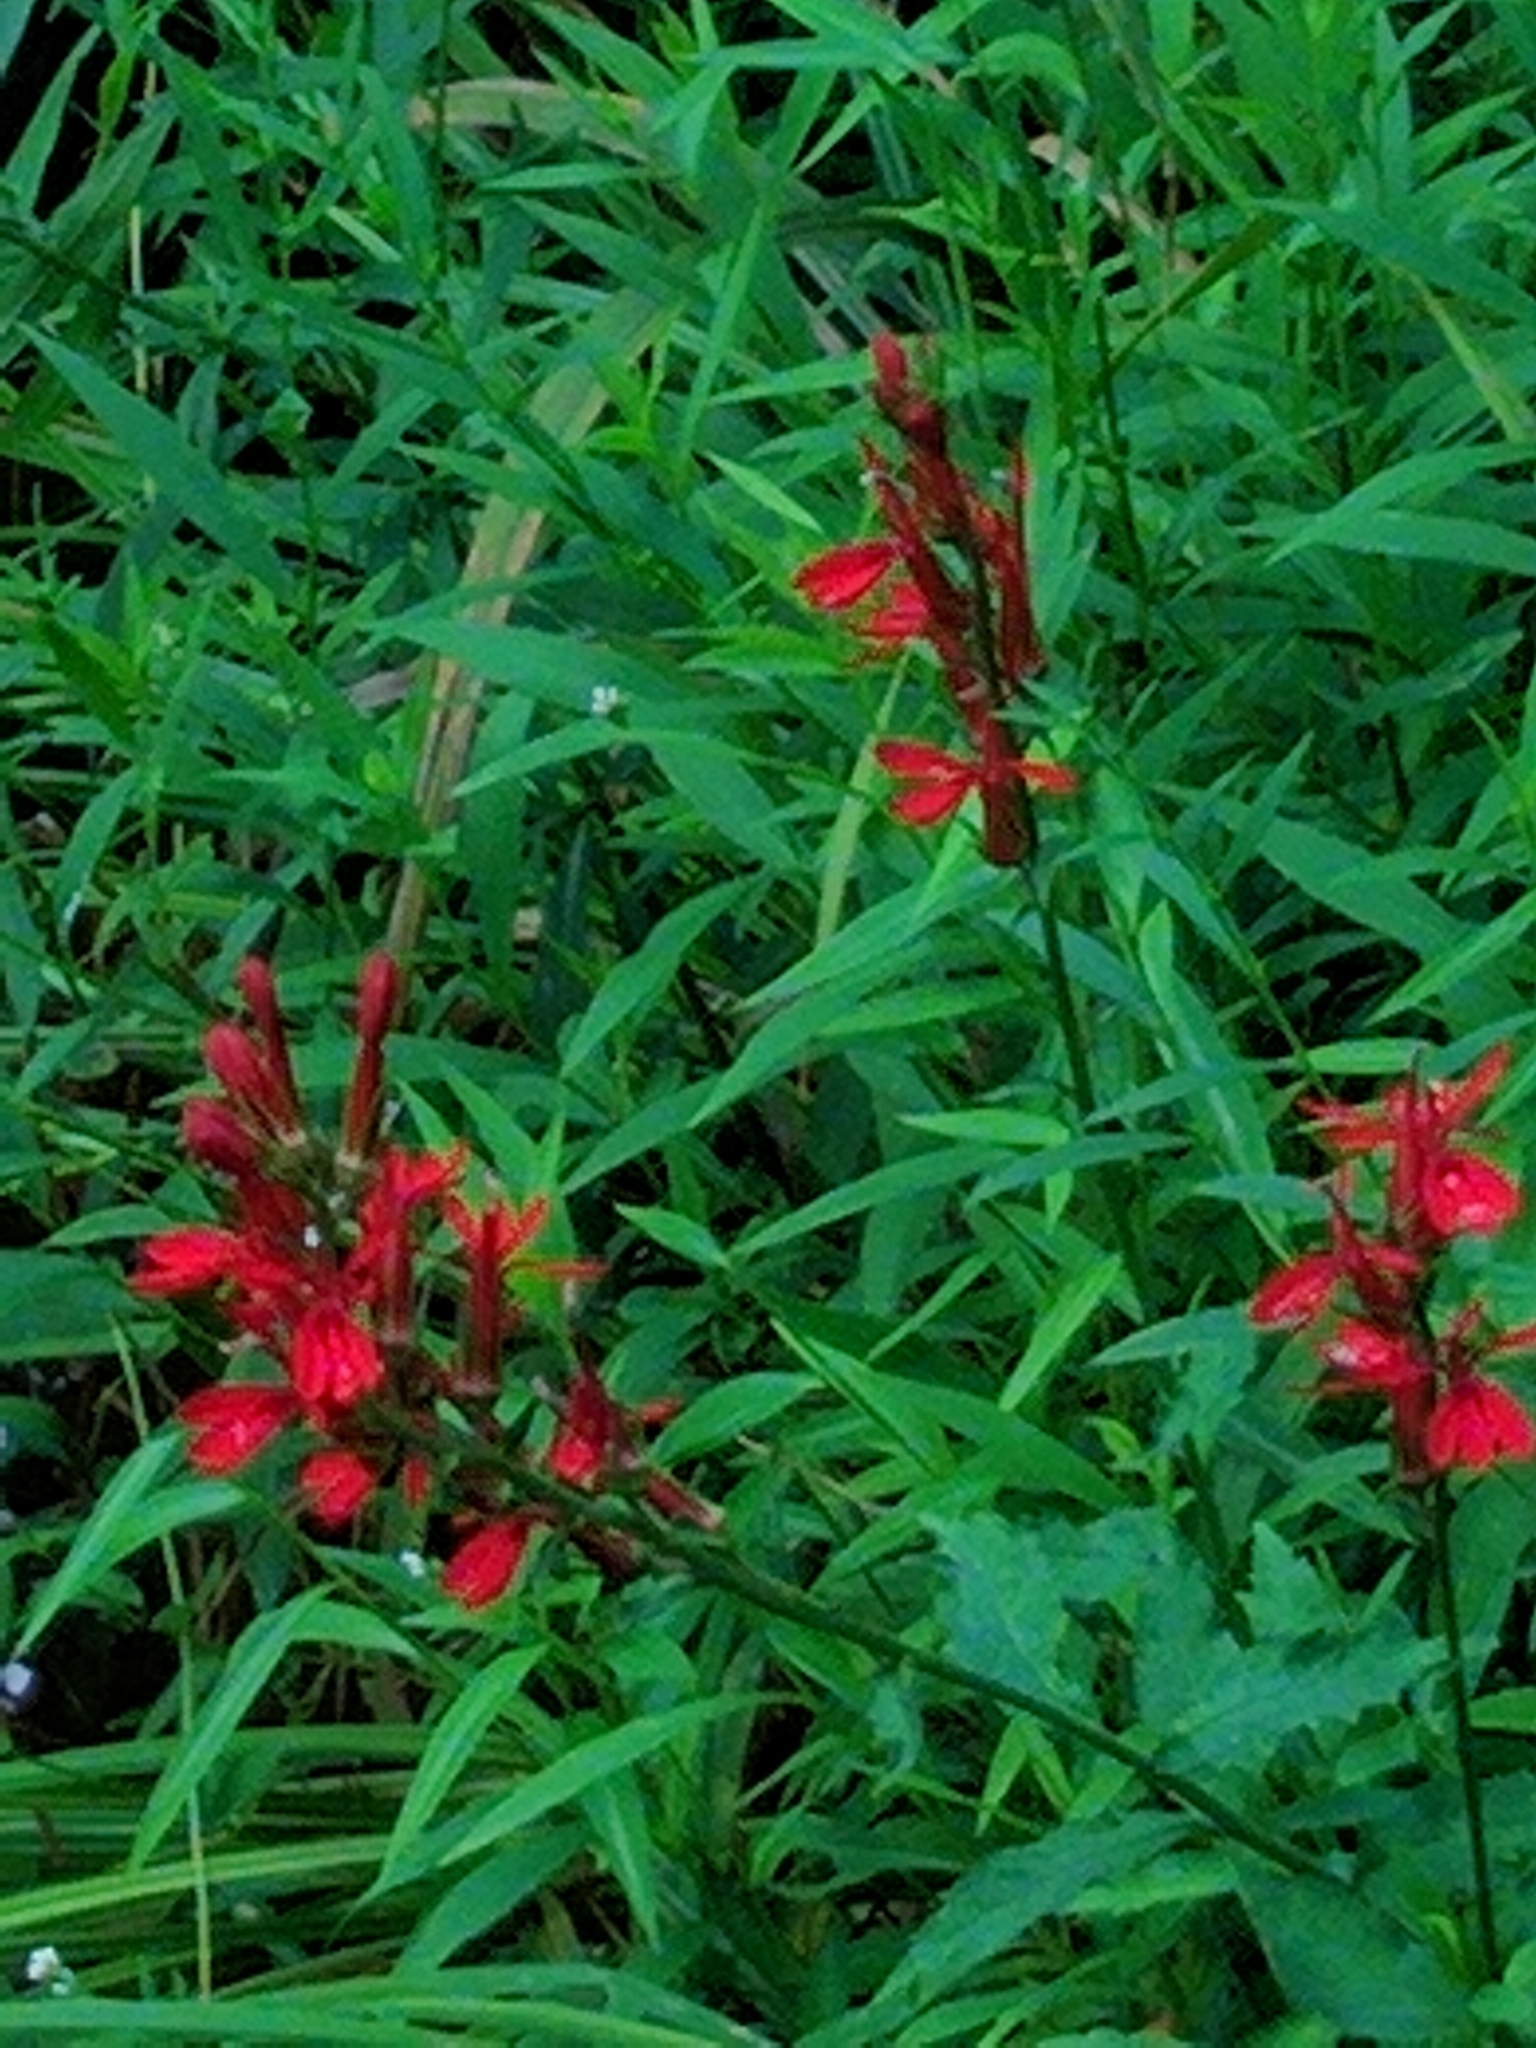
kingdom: Plantae
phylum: Tracheophyta
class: Magnoliopsida
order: Asterales
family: Campanulaceae
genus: Lobelia
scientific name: Lobelia cardinalis
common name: Cardinal flower
